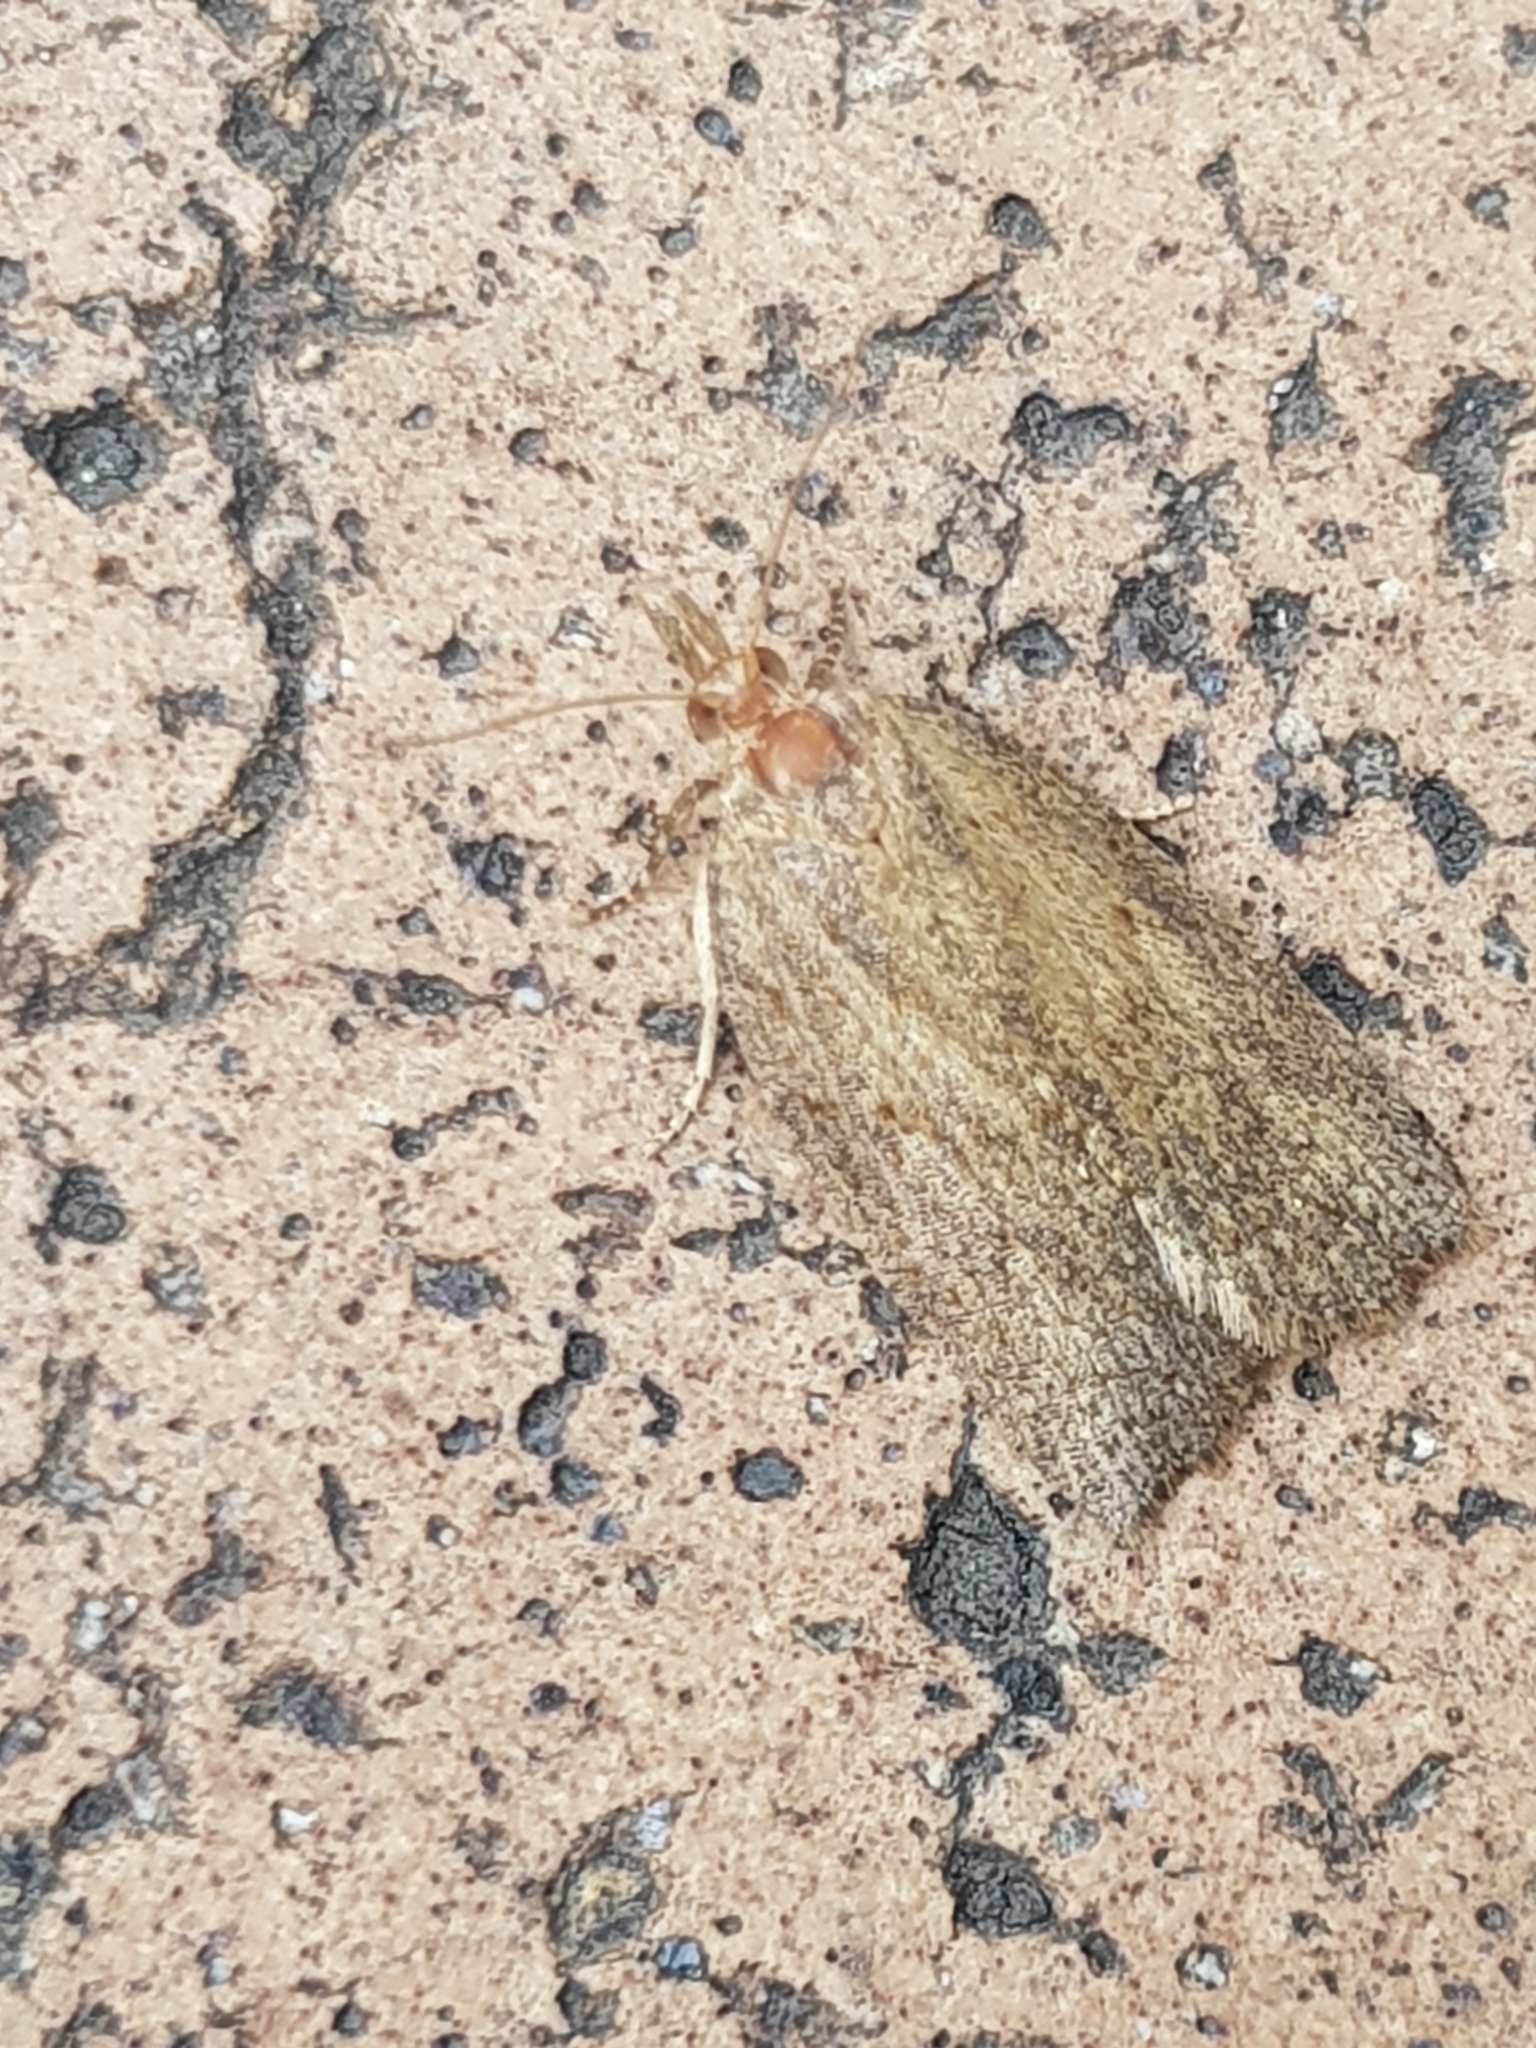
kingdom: Animalia
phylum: Arthropoda
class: Insecta
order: Lepidoptera
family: Tortricidae
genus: Epiphyas
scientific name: Epiphyas postvittana
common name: Light brown apple moth
